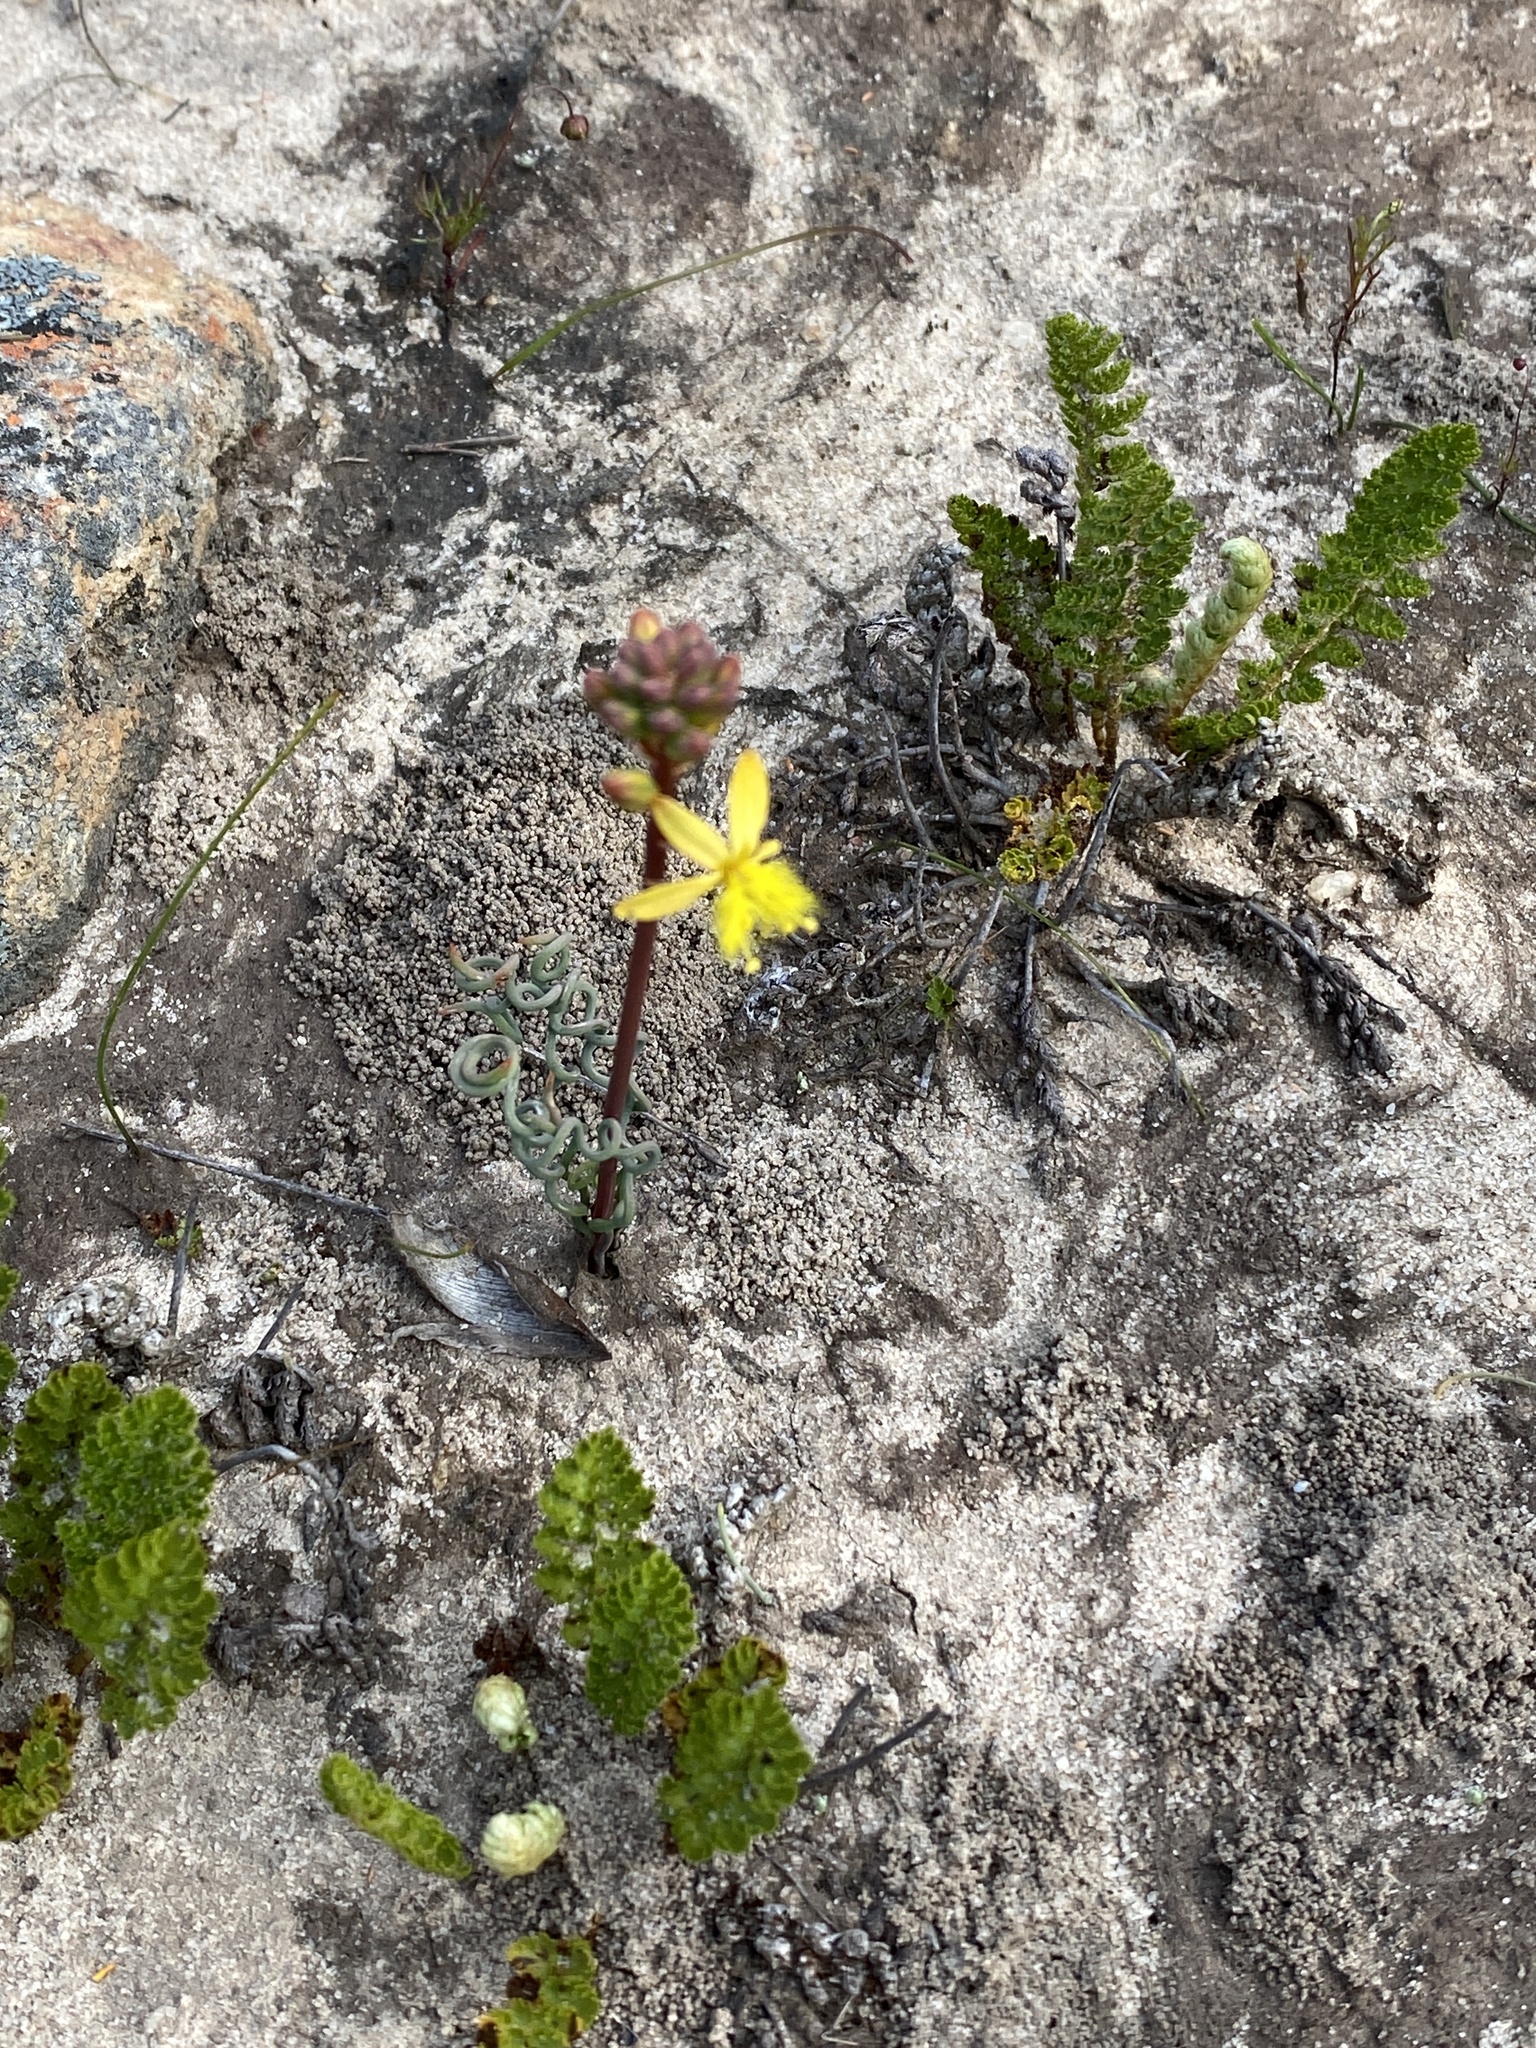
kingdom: Plantae
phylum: Tracheophyta
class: Liliopsida
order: Asparagales
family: Asphodelaceae
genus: Bulbine
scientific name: Bulbine torta
